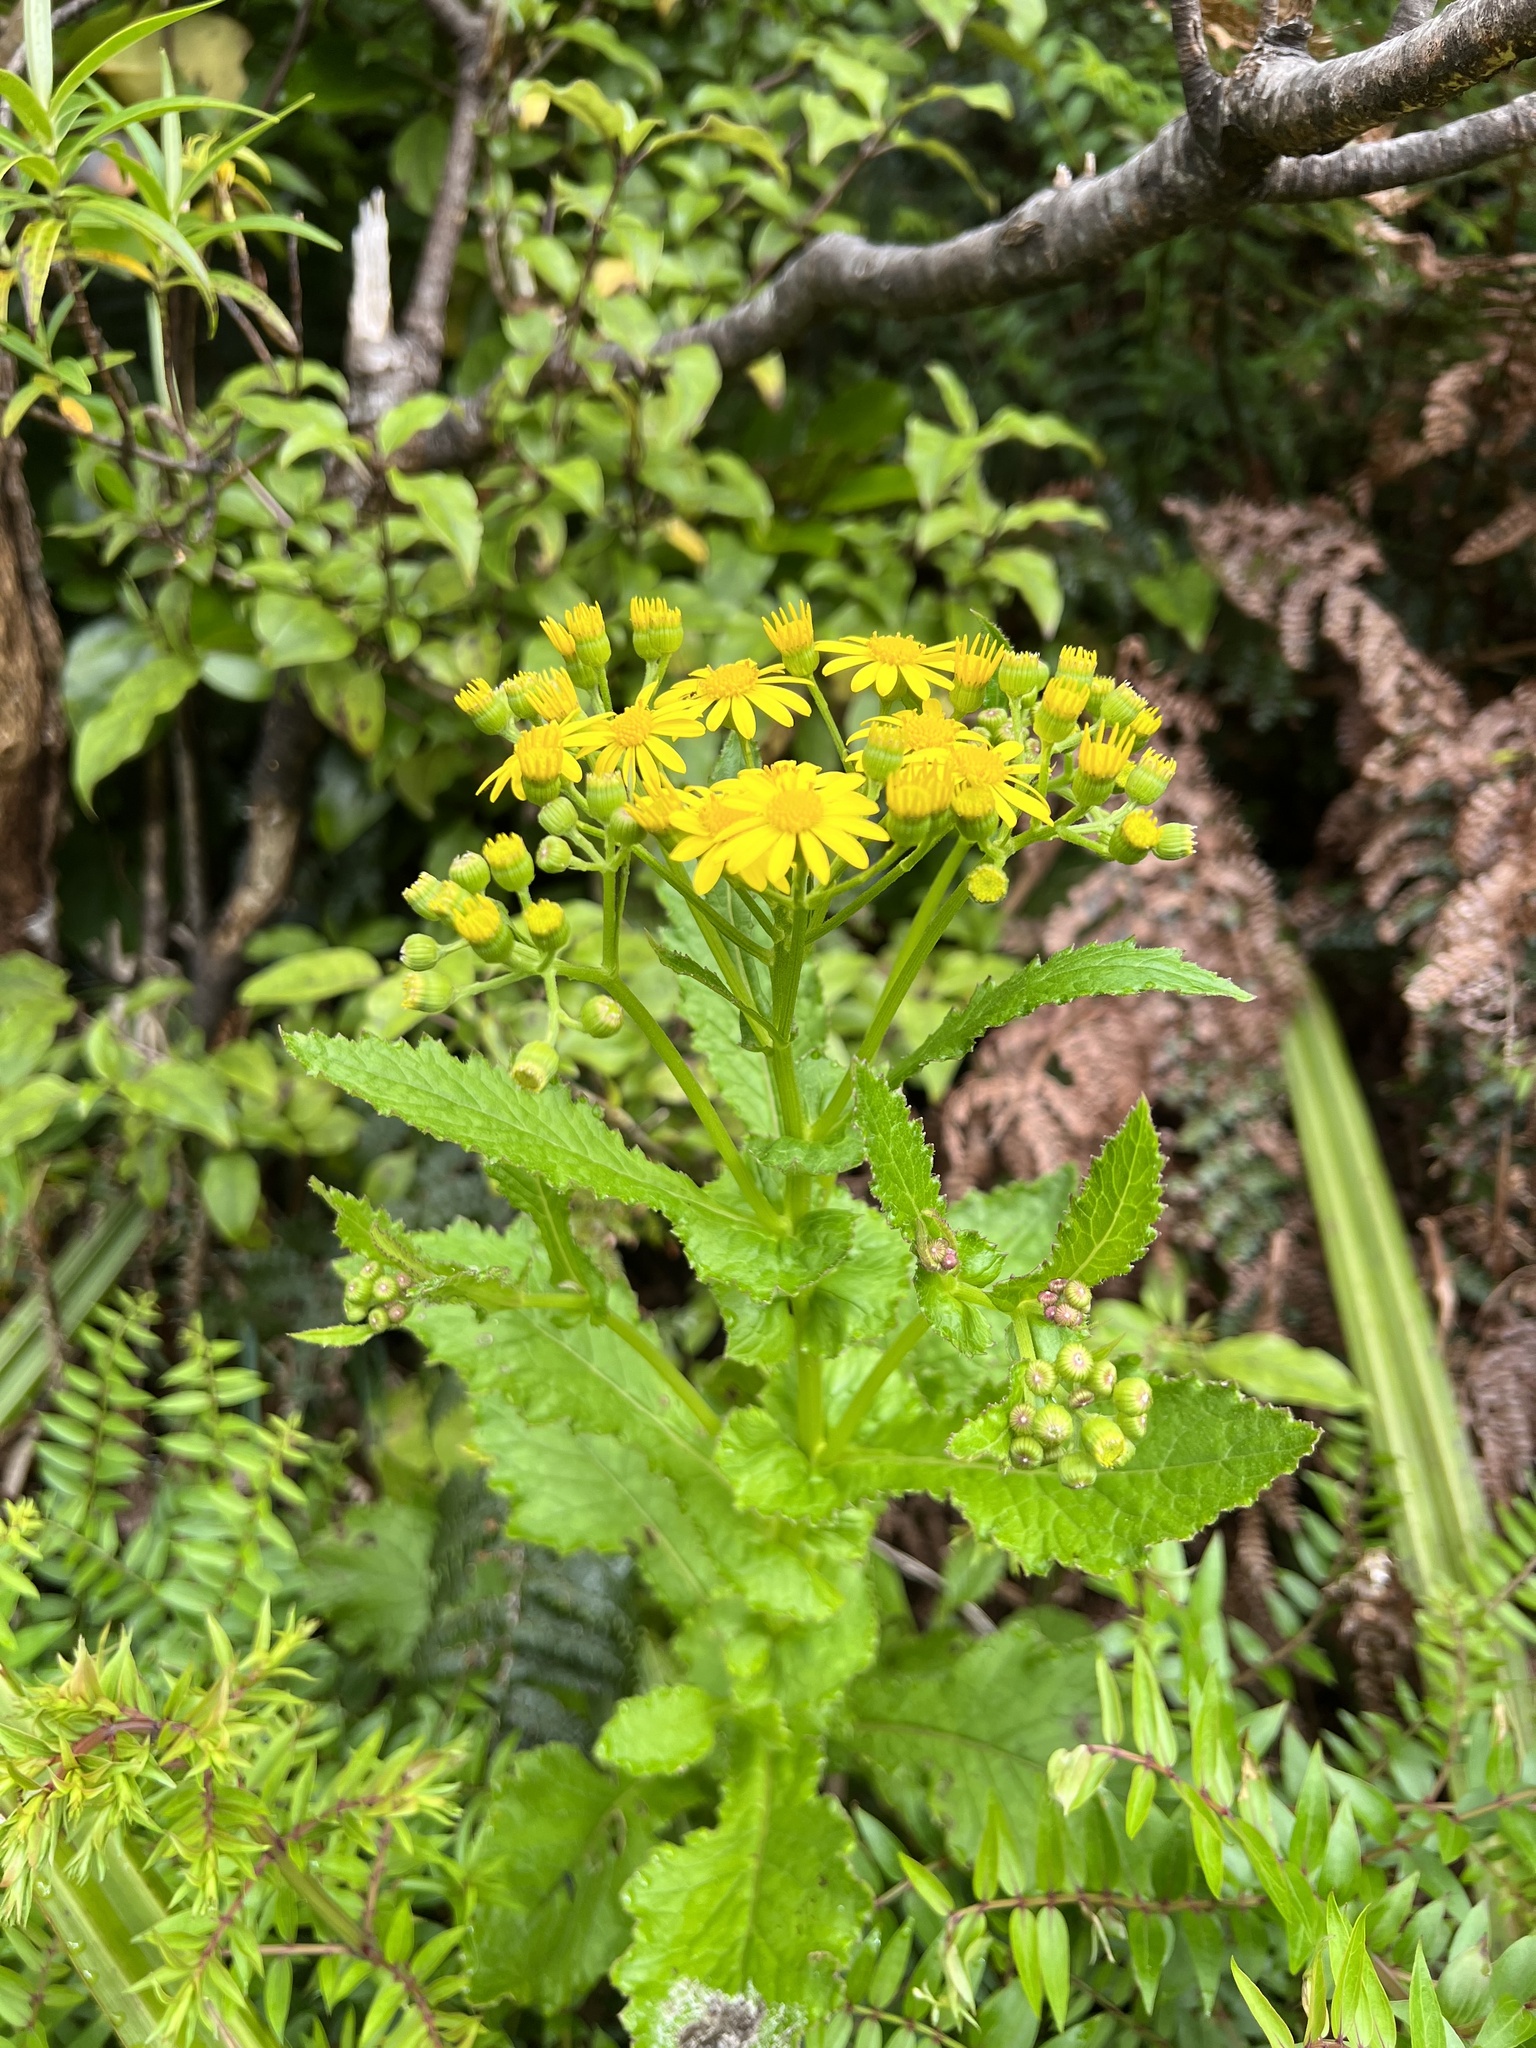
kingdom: Plantae
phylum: Tracheophyta
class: Magnoliopsida
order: Asterales
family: Asteraceae
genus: Senecio
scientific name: Senecio rufiglandulosus
